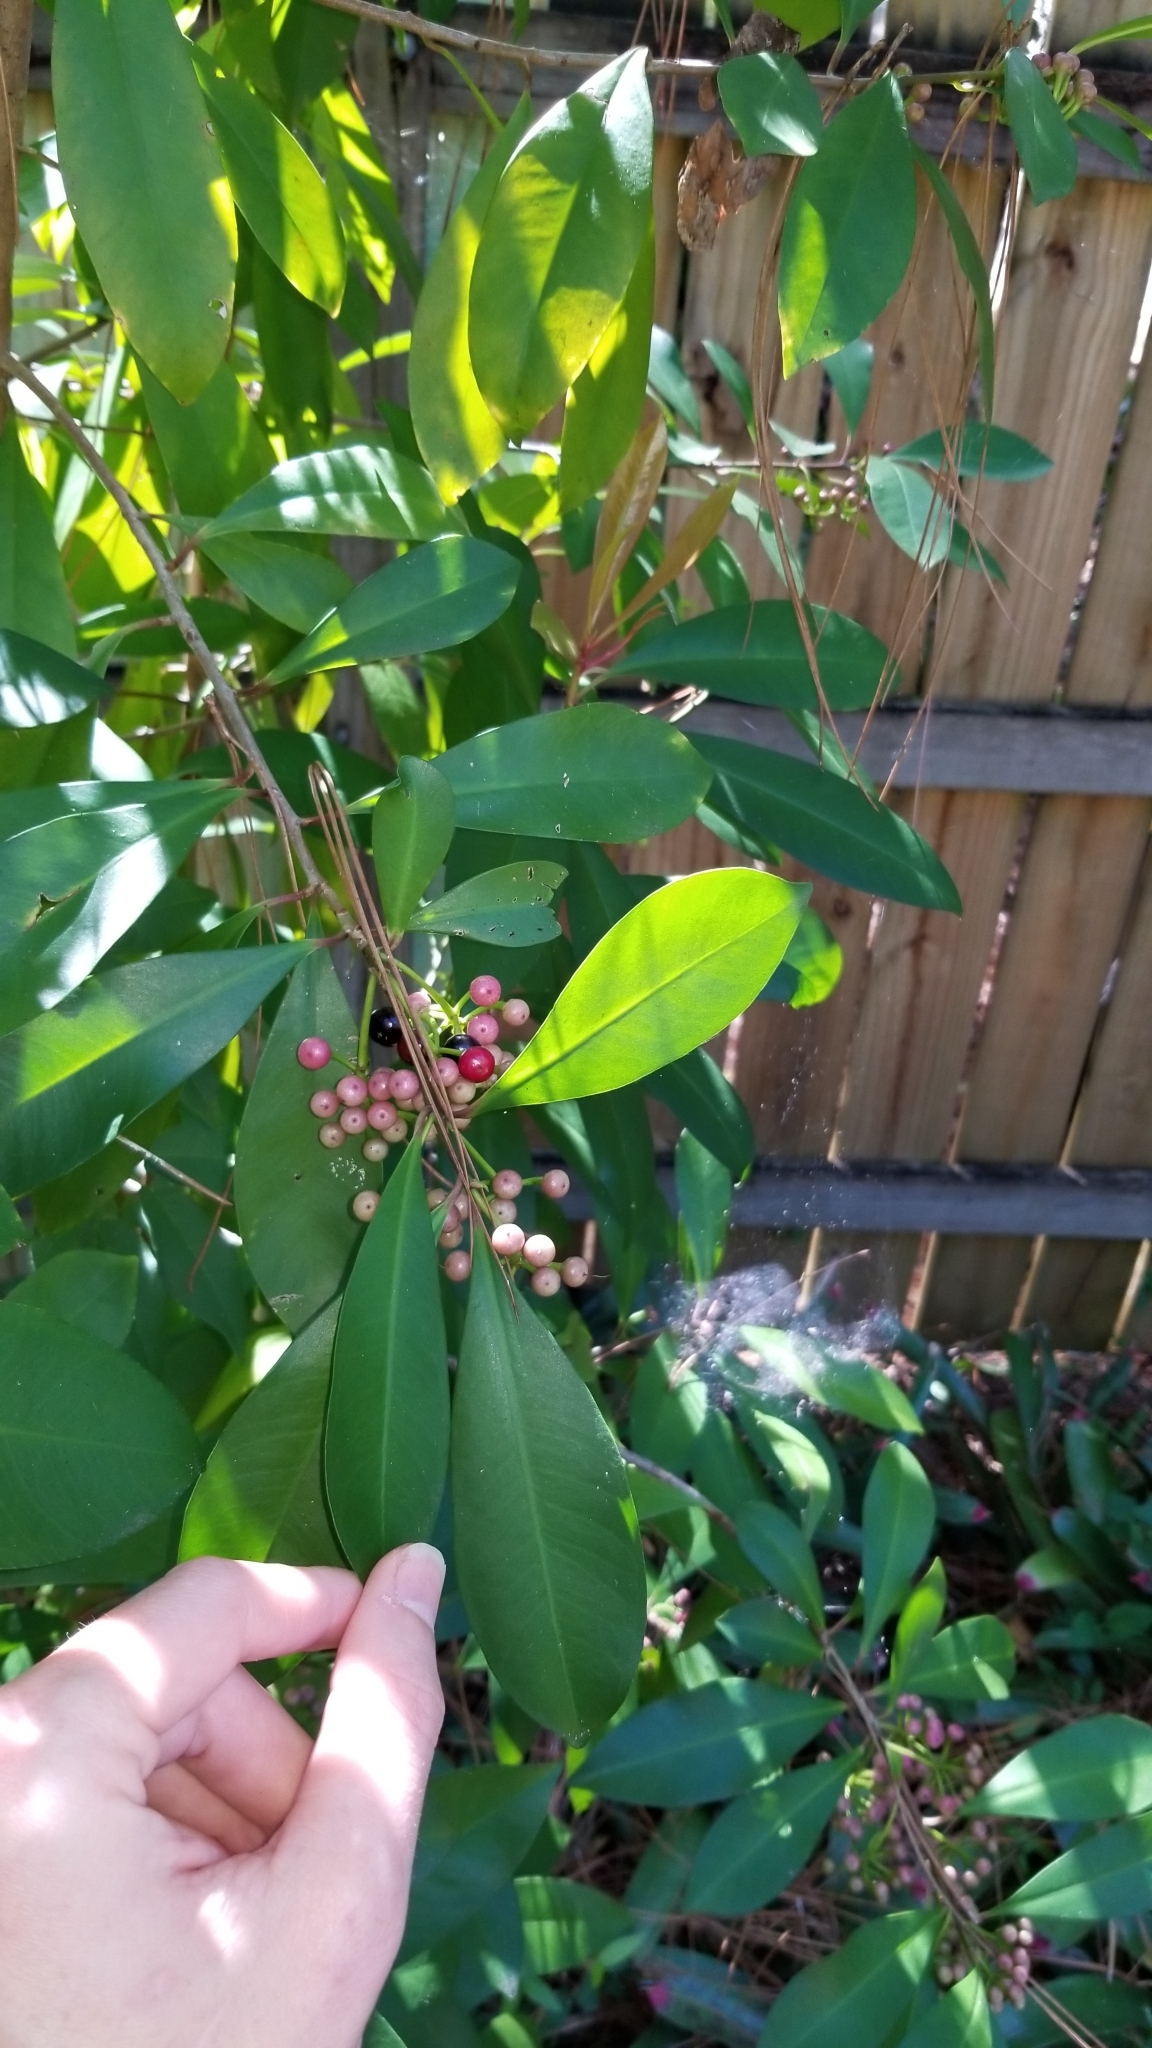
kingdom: Plantae
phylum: Tracheophyta
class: Magnoliopsida
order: Ericales
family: Primulaceae
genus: Ardisia
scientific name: Ardisia elliptica
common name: Shoebutton
